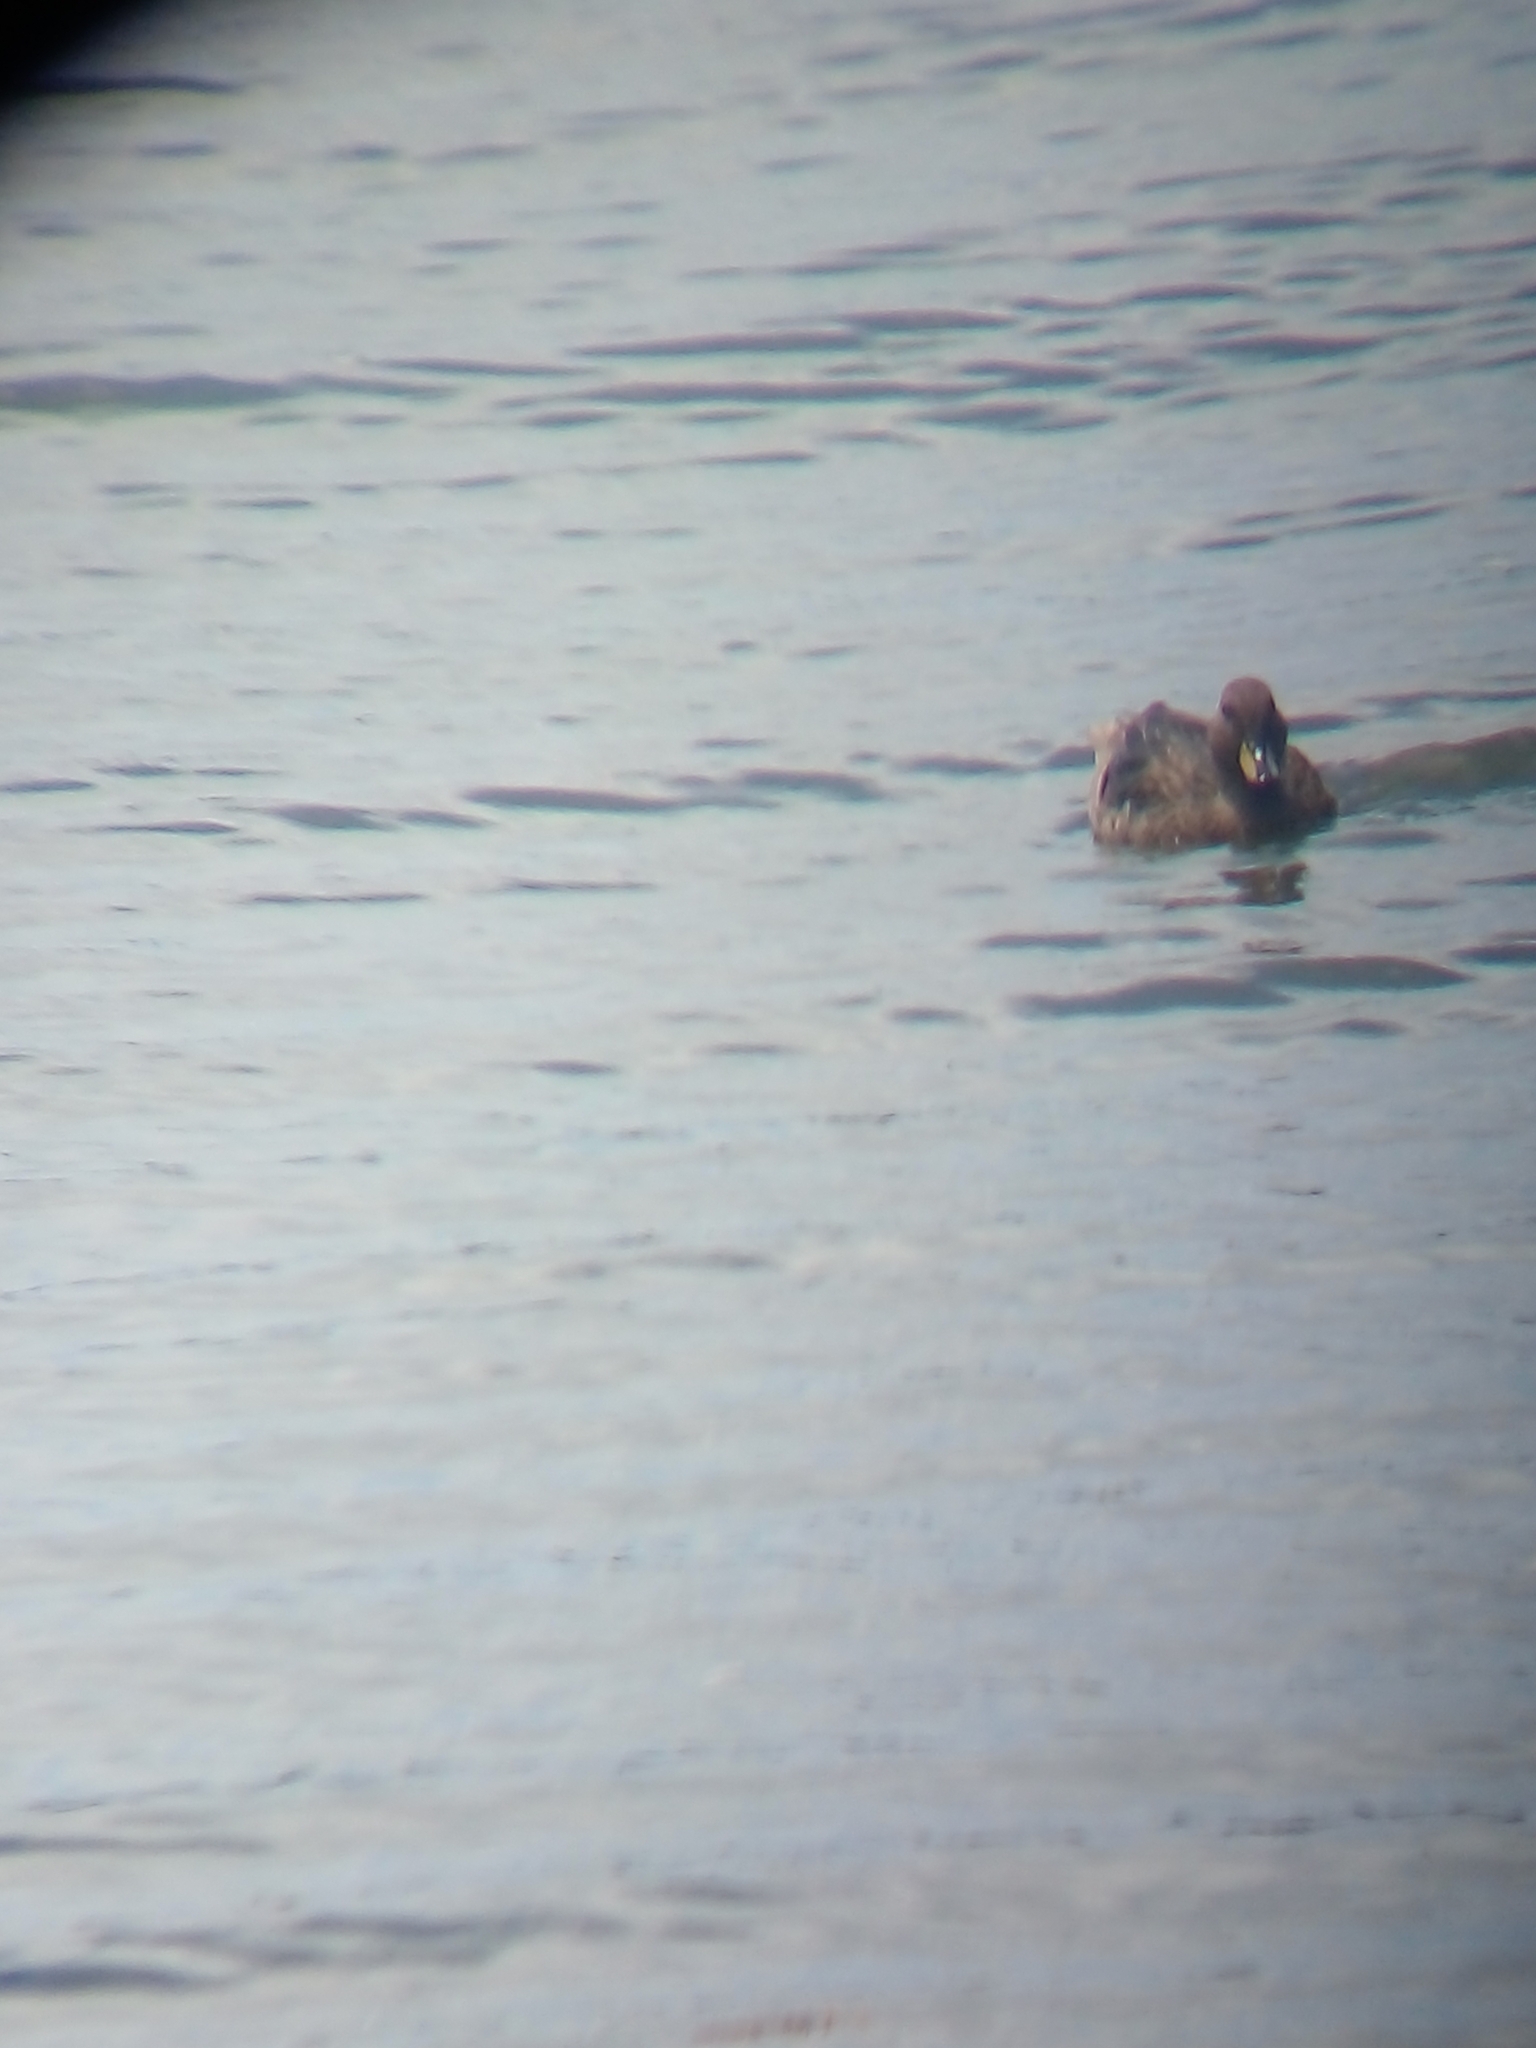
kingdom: Animalia
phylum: Chordata
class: Aves
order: Anseriformes
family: Anatidae
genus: Anas
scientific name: Anas flavirostris
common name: Yellow-billed teal
